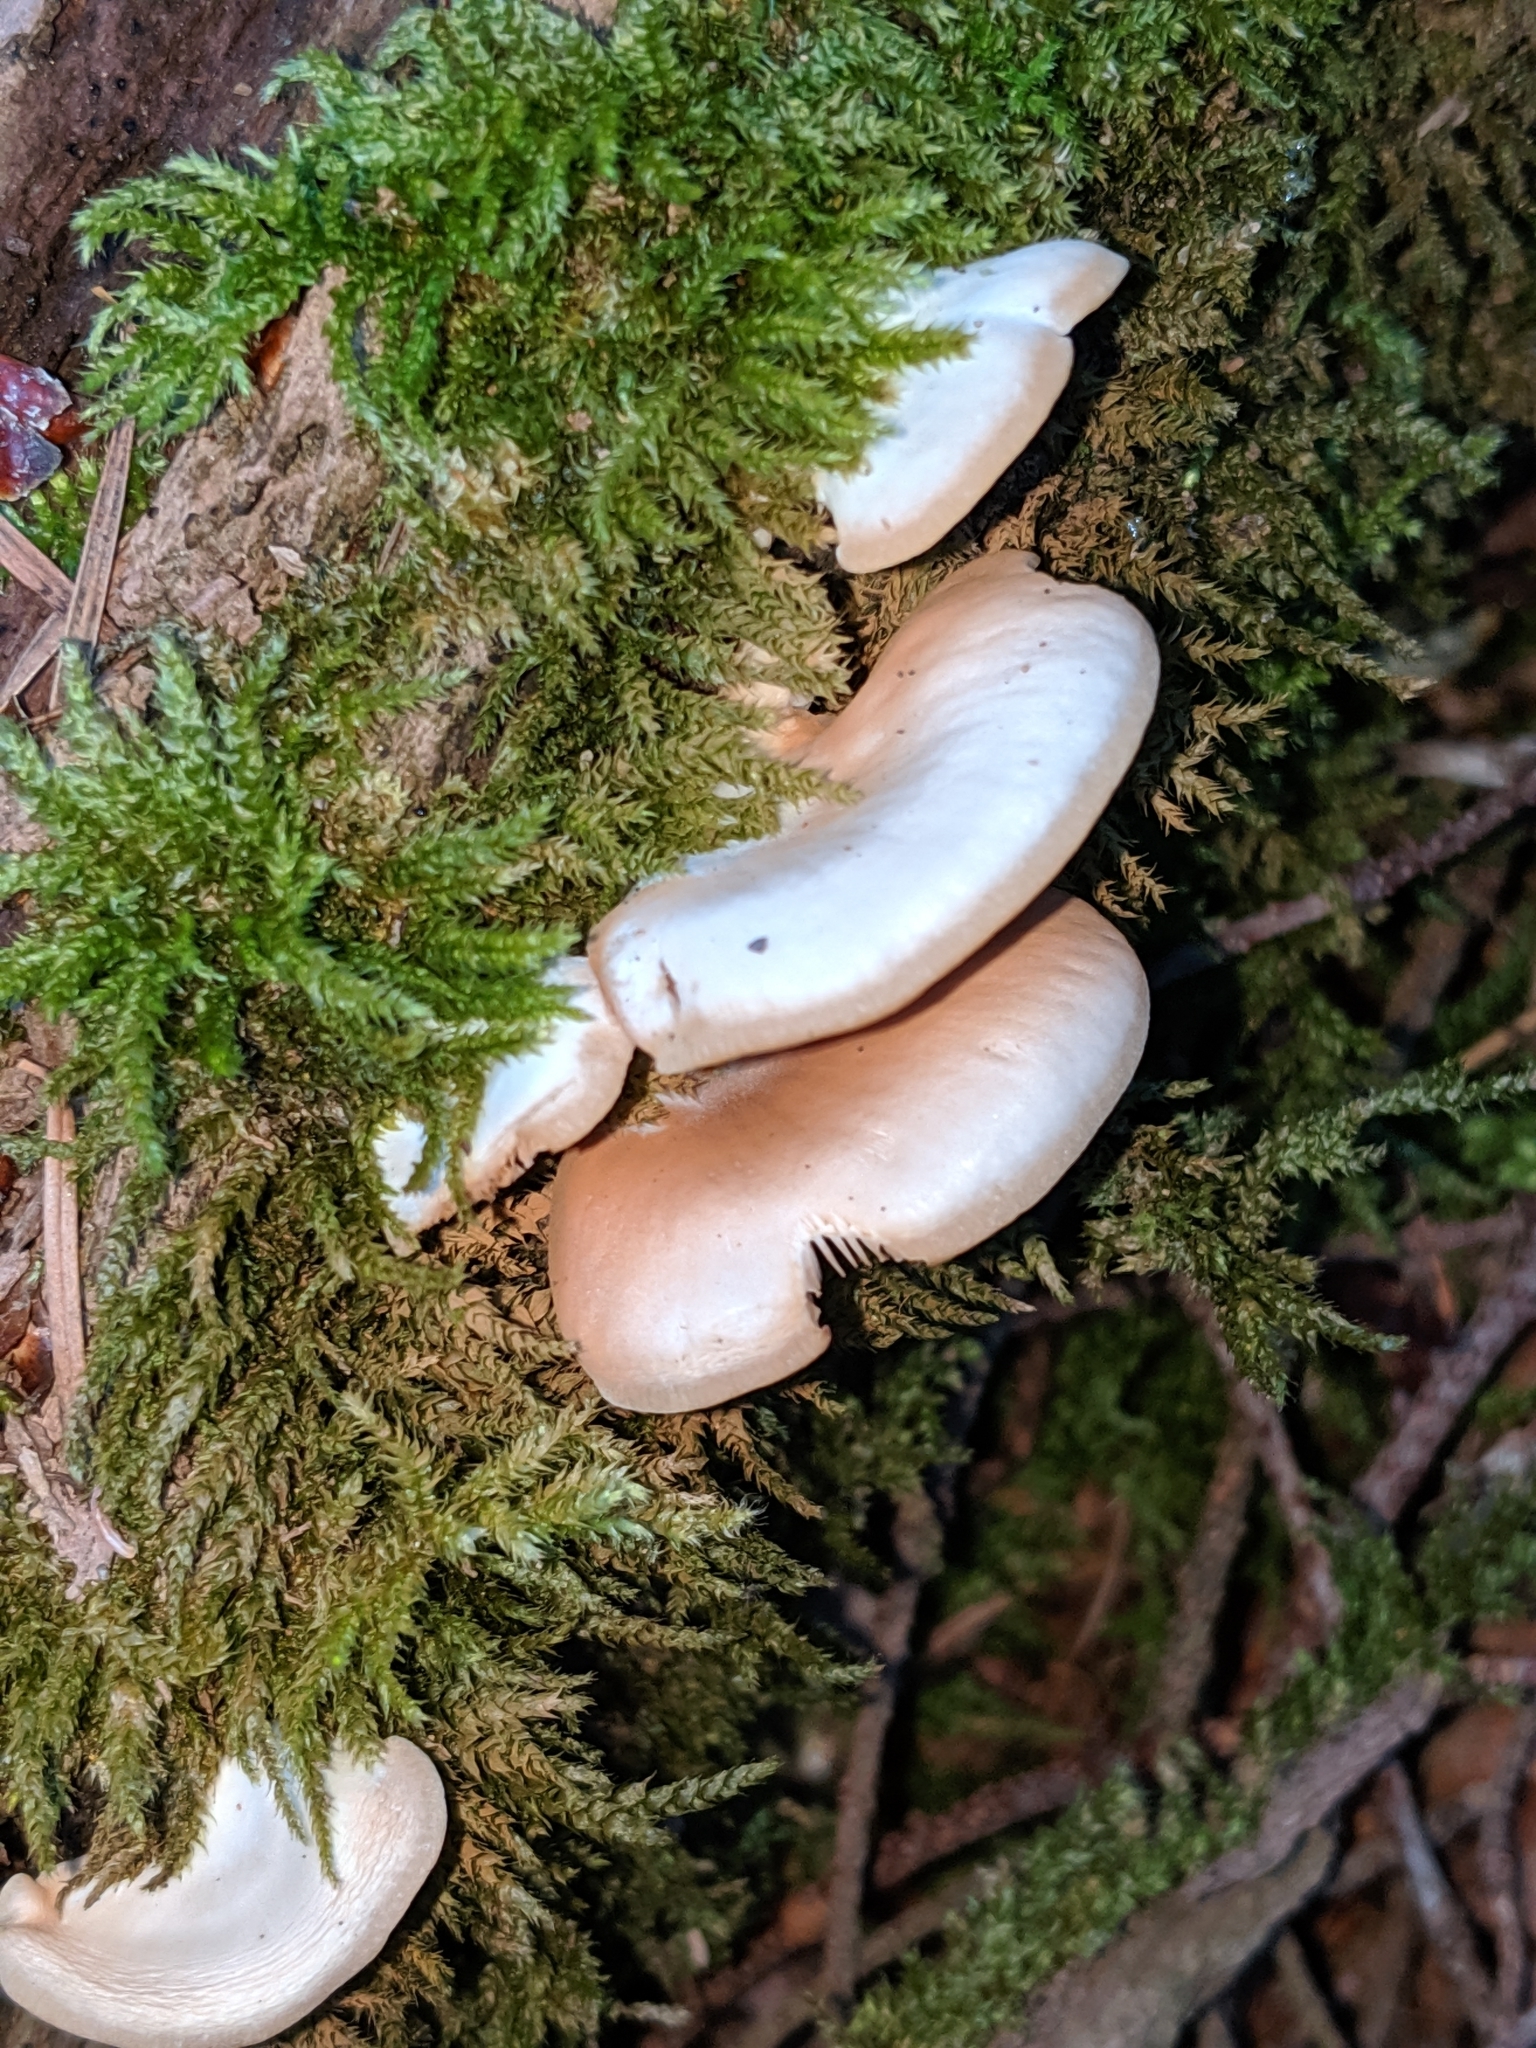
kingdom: Fungi
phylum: Basidiomycota
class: Agaricomycetes
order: Agaricales
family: Pleurotaceae
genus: Pleurotus
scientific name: Pleurotus pulmonarius
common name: Pale oyster
